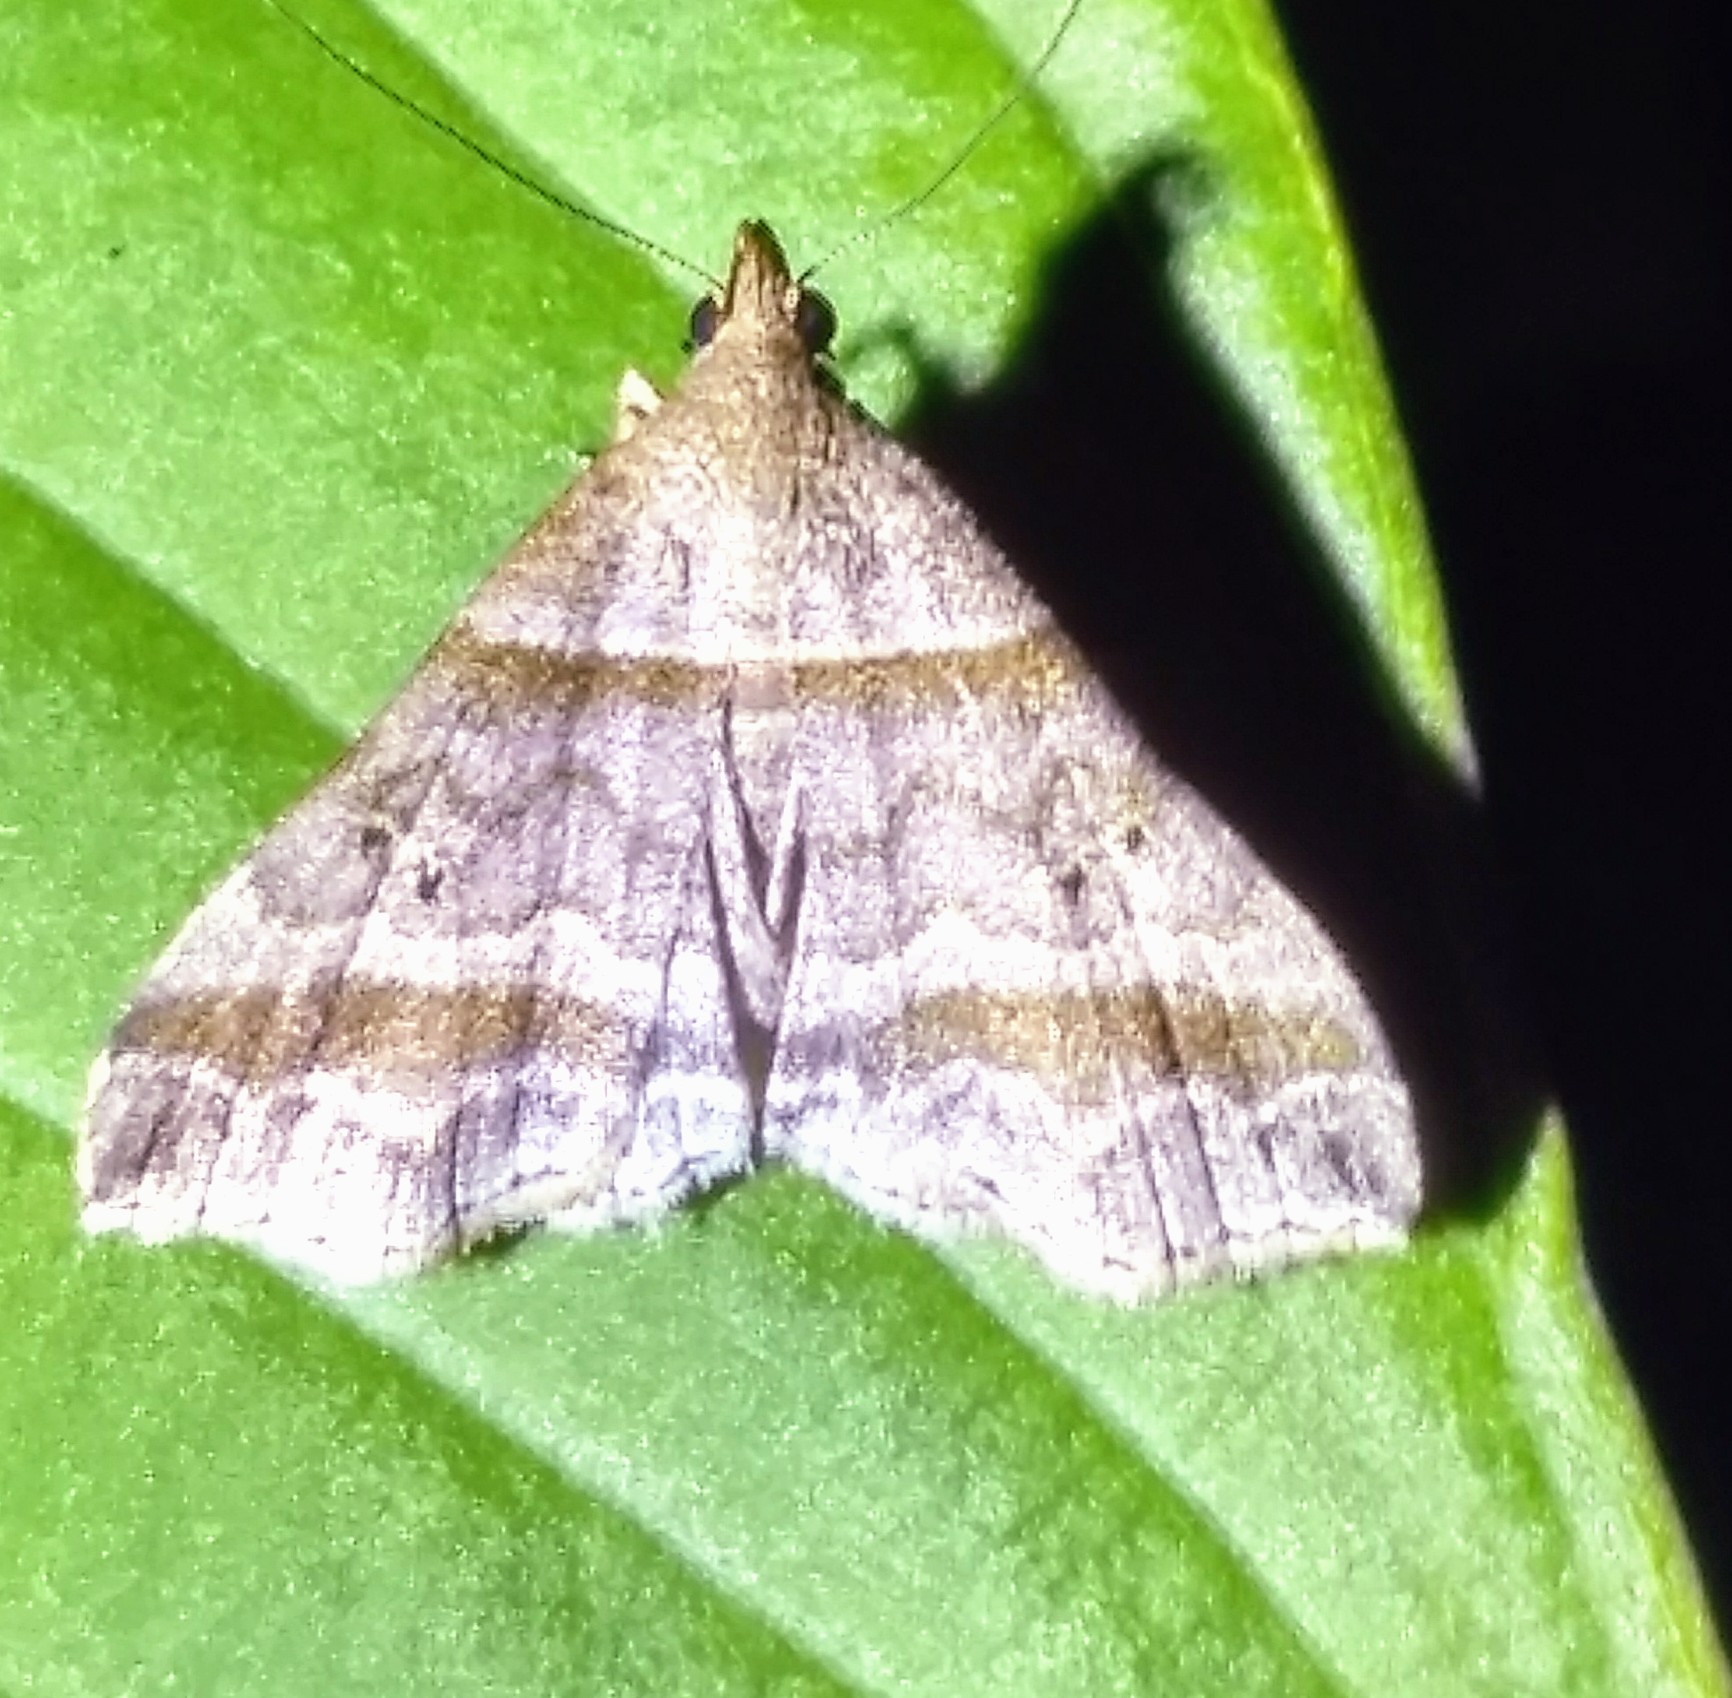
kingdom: Animalia
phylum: Arthropoda
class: Insecta
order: Lepidoptera
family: Erebidae
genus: Phaeolita
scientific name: Phaeolita pyramusalis
